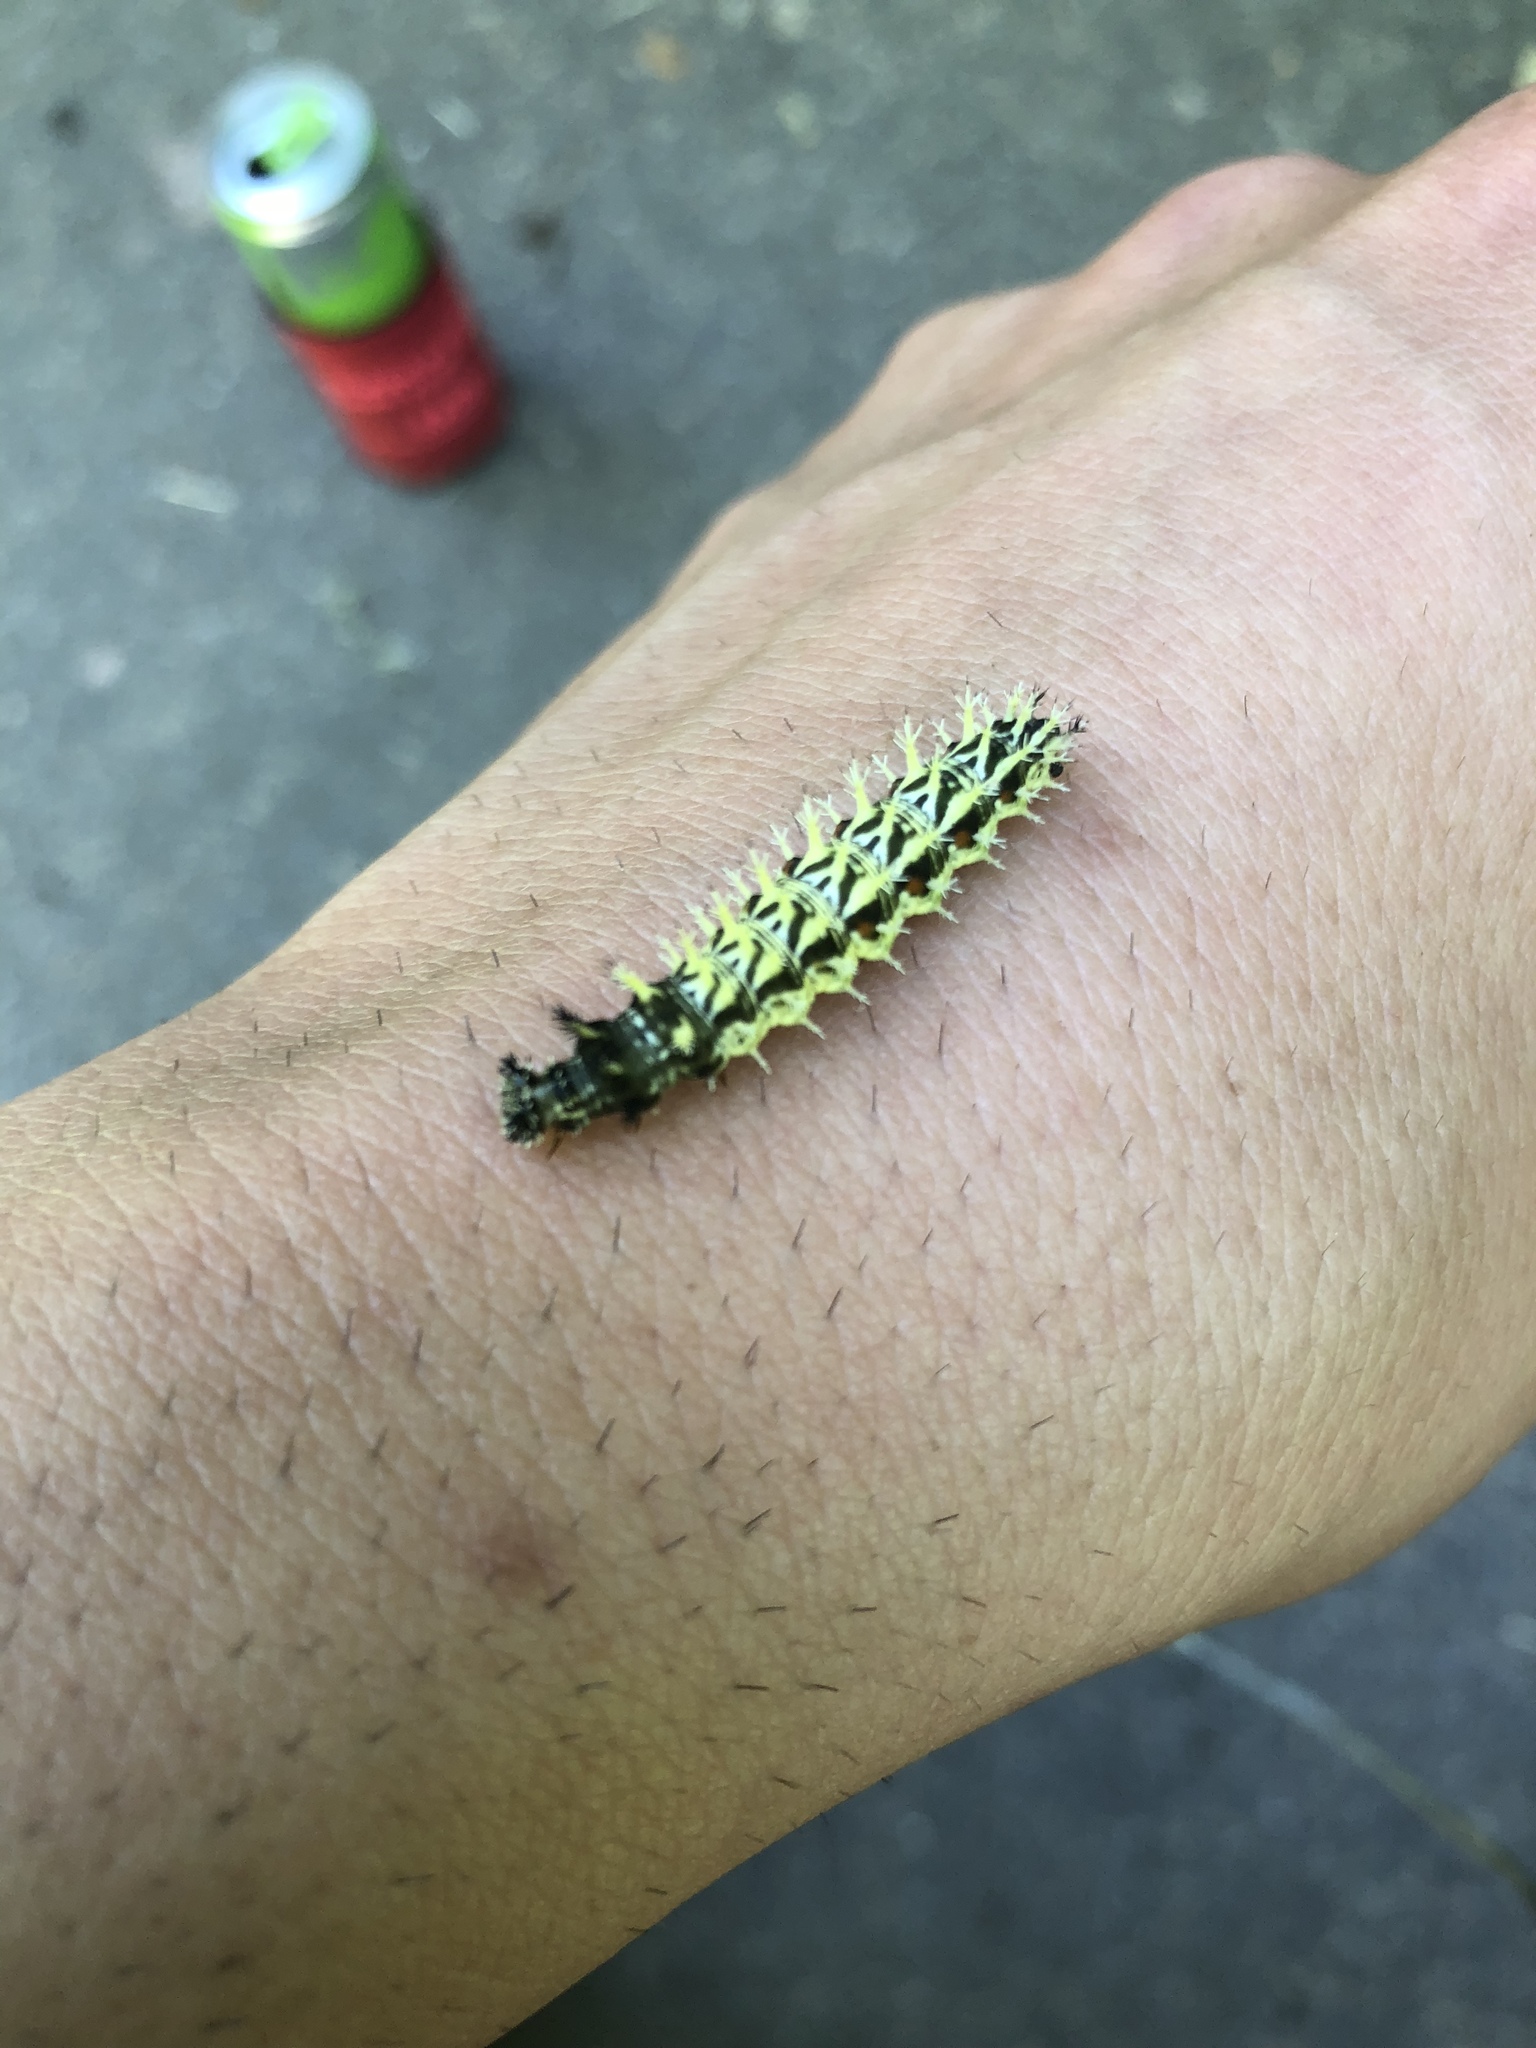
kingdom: Animalia
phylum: Arthropoda
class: Insecta
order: Lepidoptera
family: Nymphalidae
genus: Polygonia
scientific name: Polygonia comma
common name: Eastern comma
